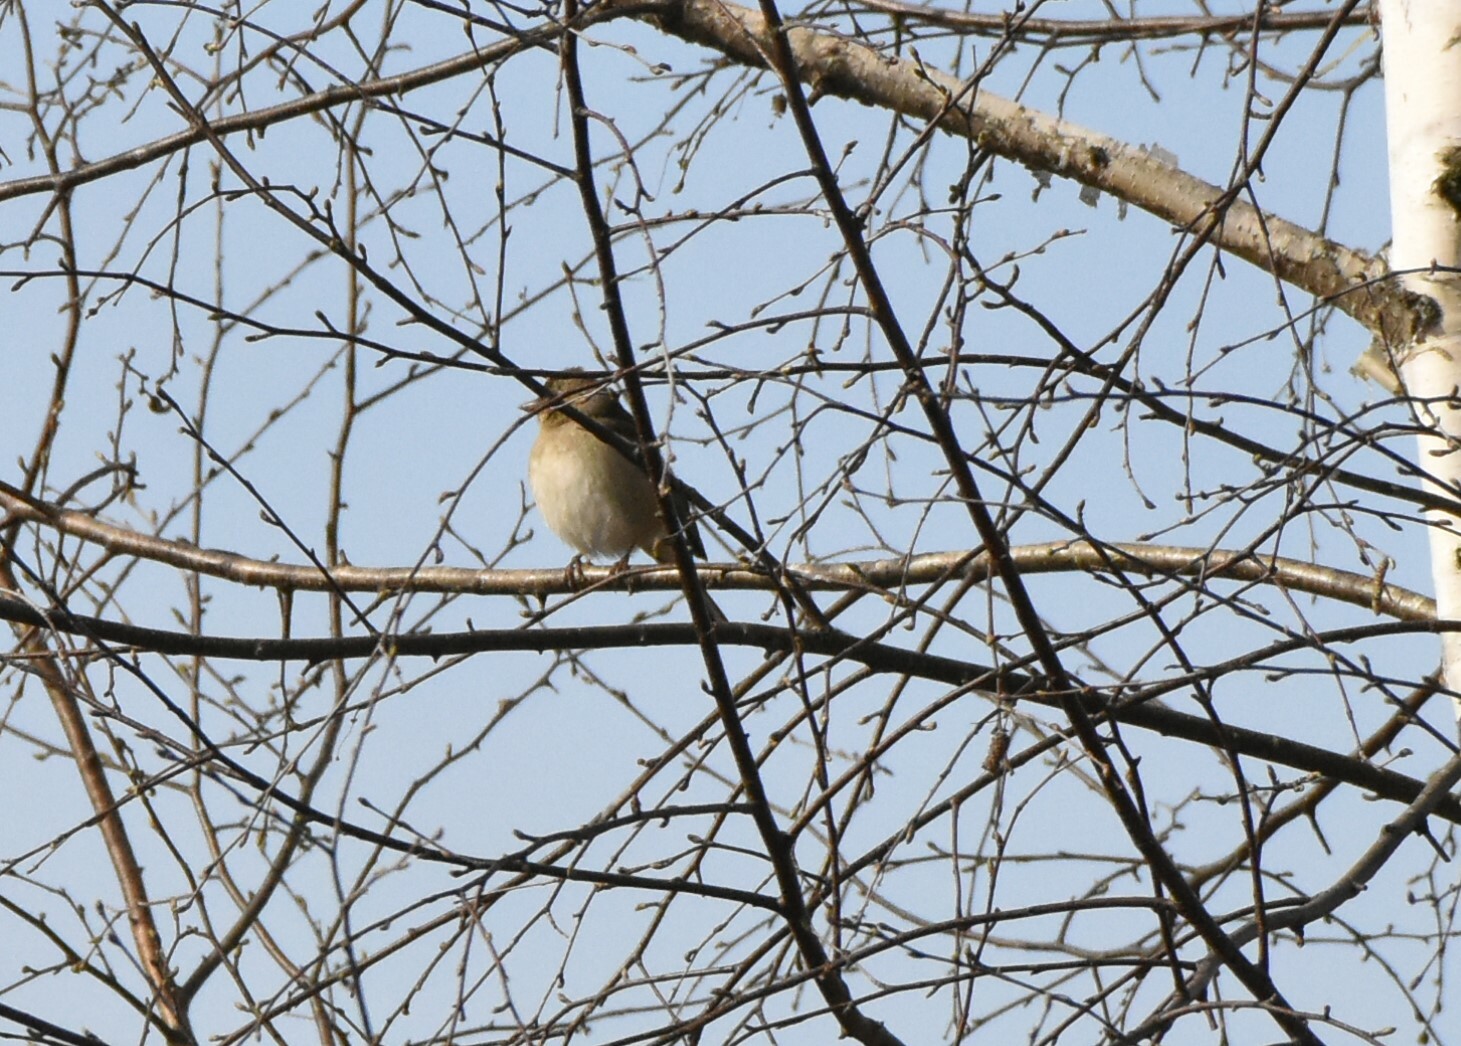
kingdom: Animalia
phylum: Chordata
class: Aves
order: Passeriformes
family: Fringillidae
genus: Fringilla
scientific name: Fringilla coelebs
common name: Common chaffinch
